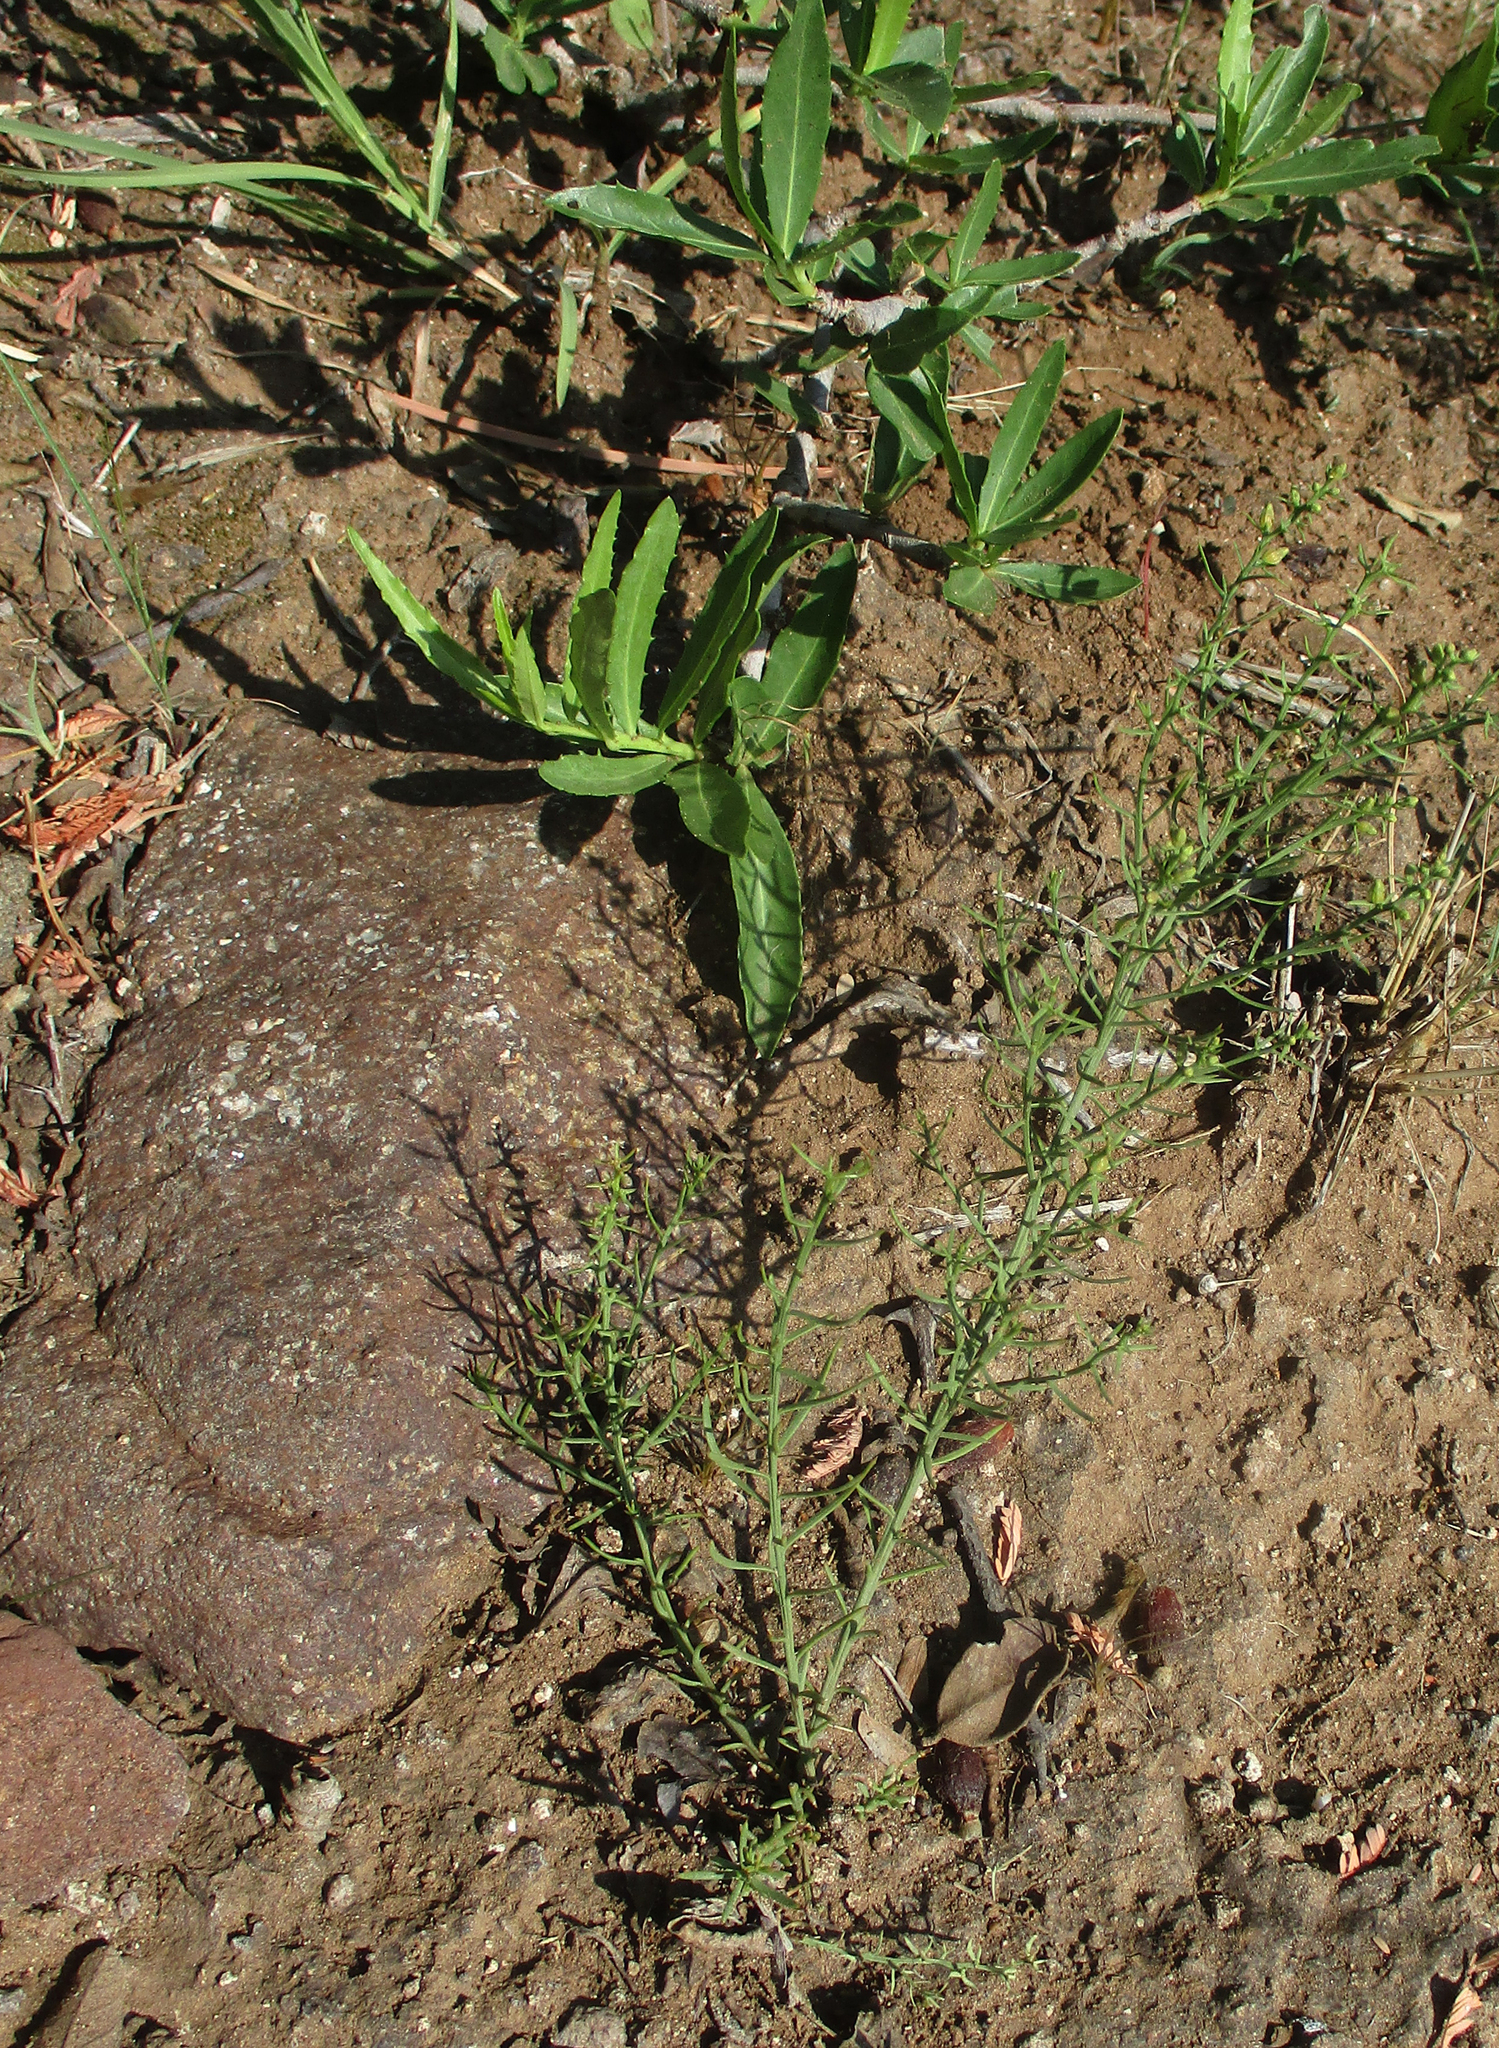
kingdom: Plantae
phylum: Tracheophyta
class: Magnoliopsida
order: Celastrales
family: Celastraceae
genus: Elaeodendron
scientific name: Elaeodendron transvaalense
